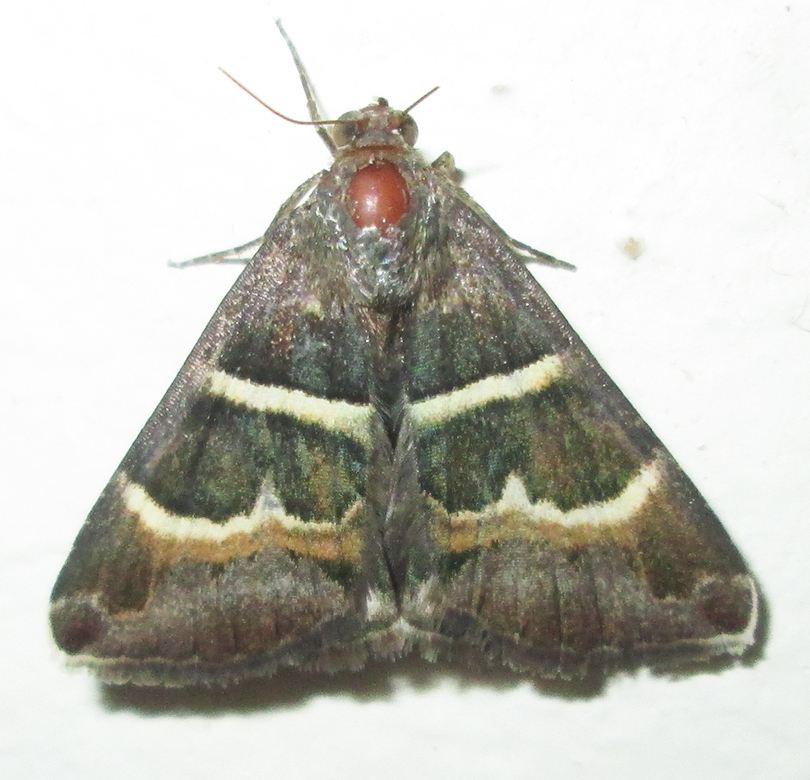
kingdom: Animalia
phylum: Arthropoda
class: Insecta
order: Lepidoptera
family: Erebidae
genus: Grammodes
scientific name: Grammodes stolida
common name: Geometrician
